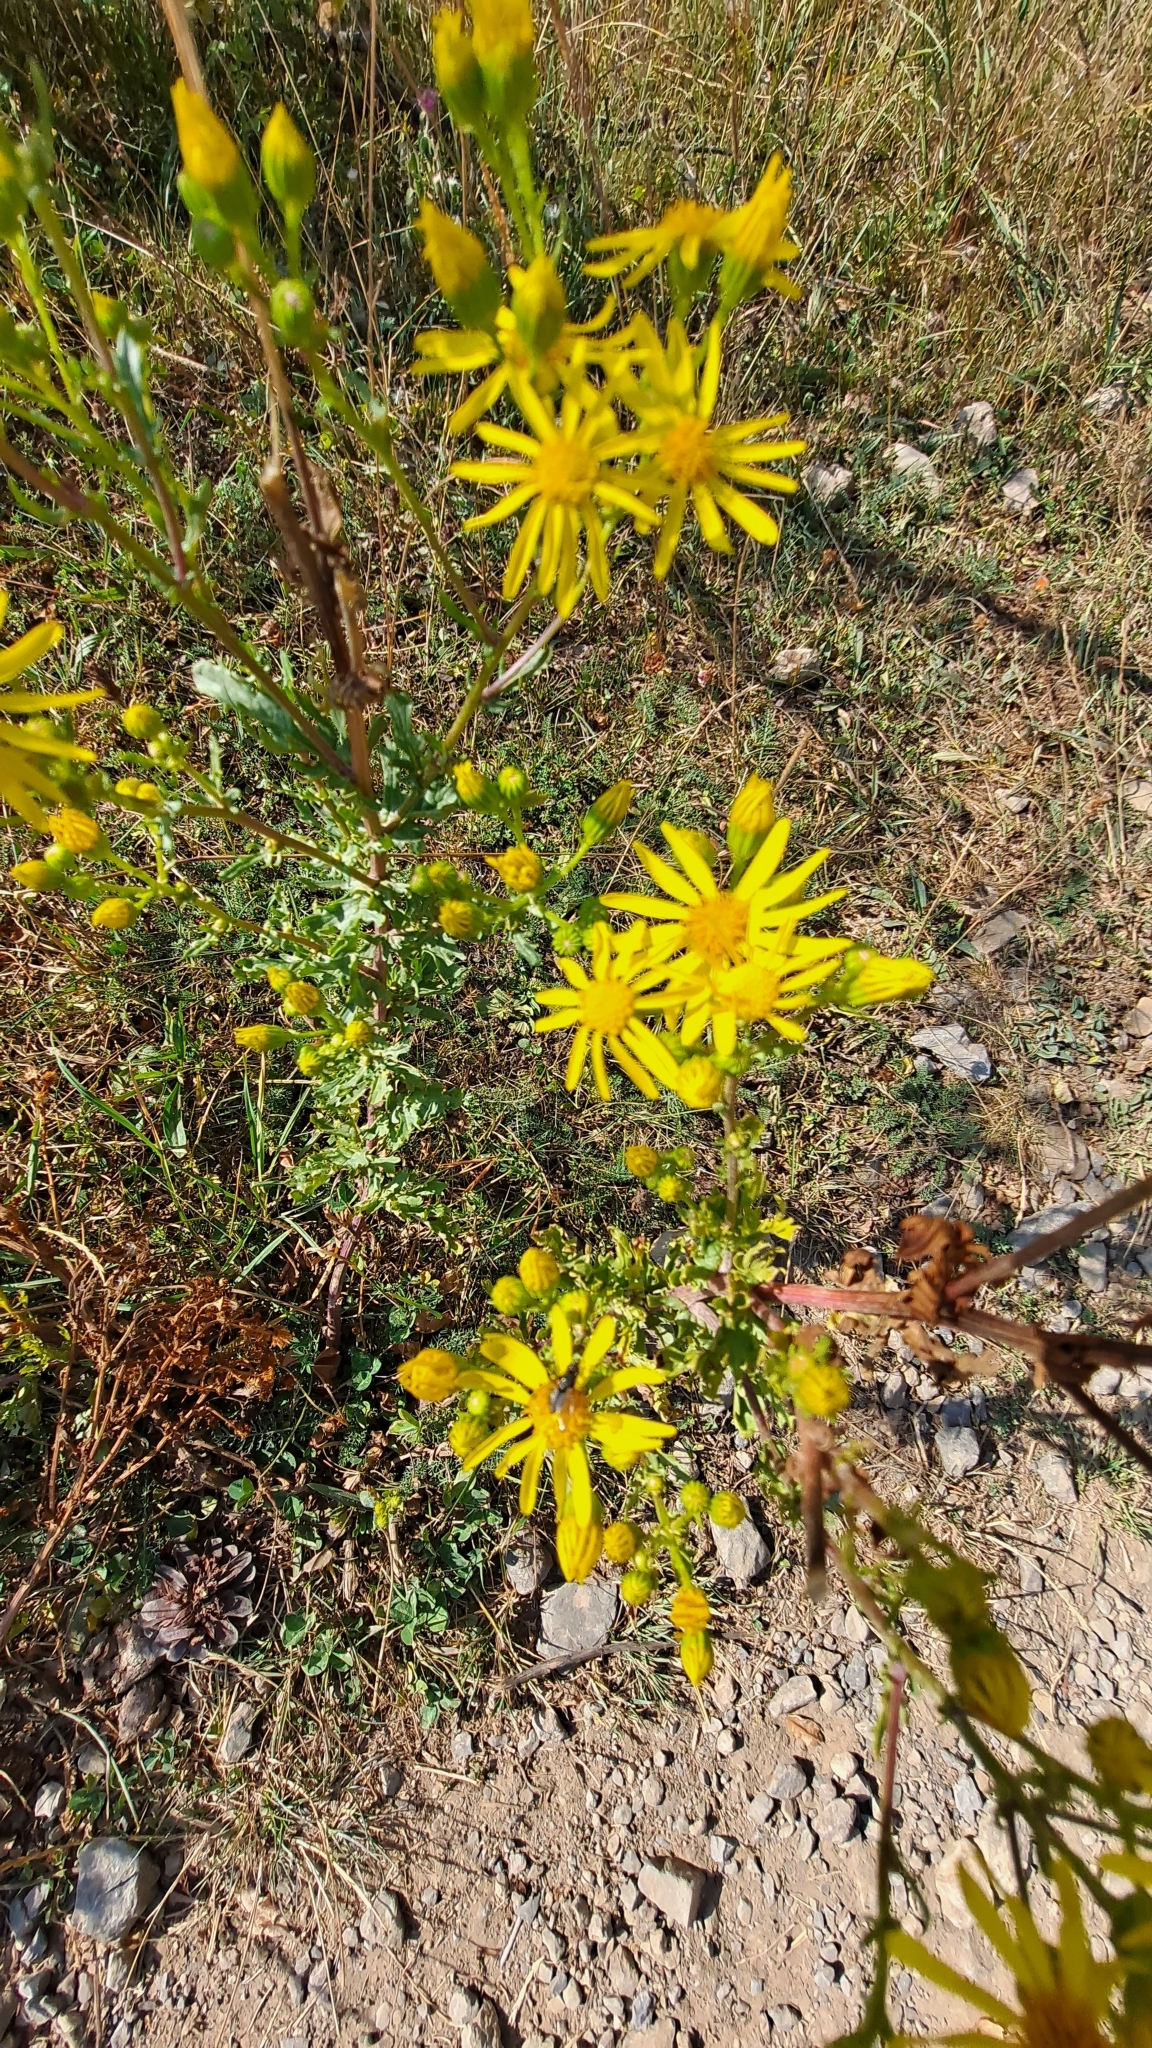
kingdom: Plantae
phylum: Tracheophyta
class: Magnoliopsida
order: Asterales
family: Asteraceae
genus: Jacobaea
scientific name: Jacobaea vulgaris
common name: Stinking willie
